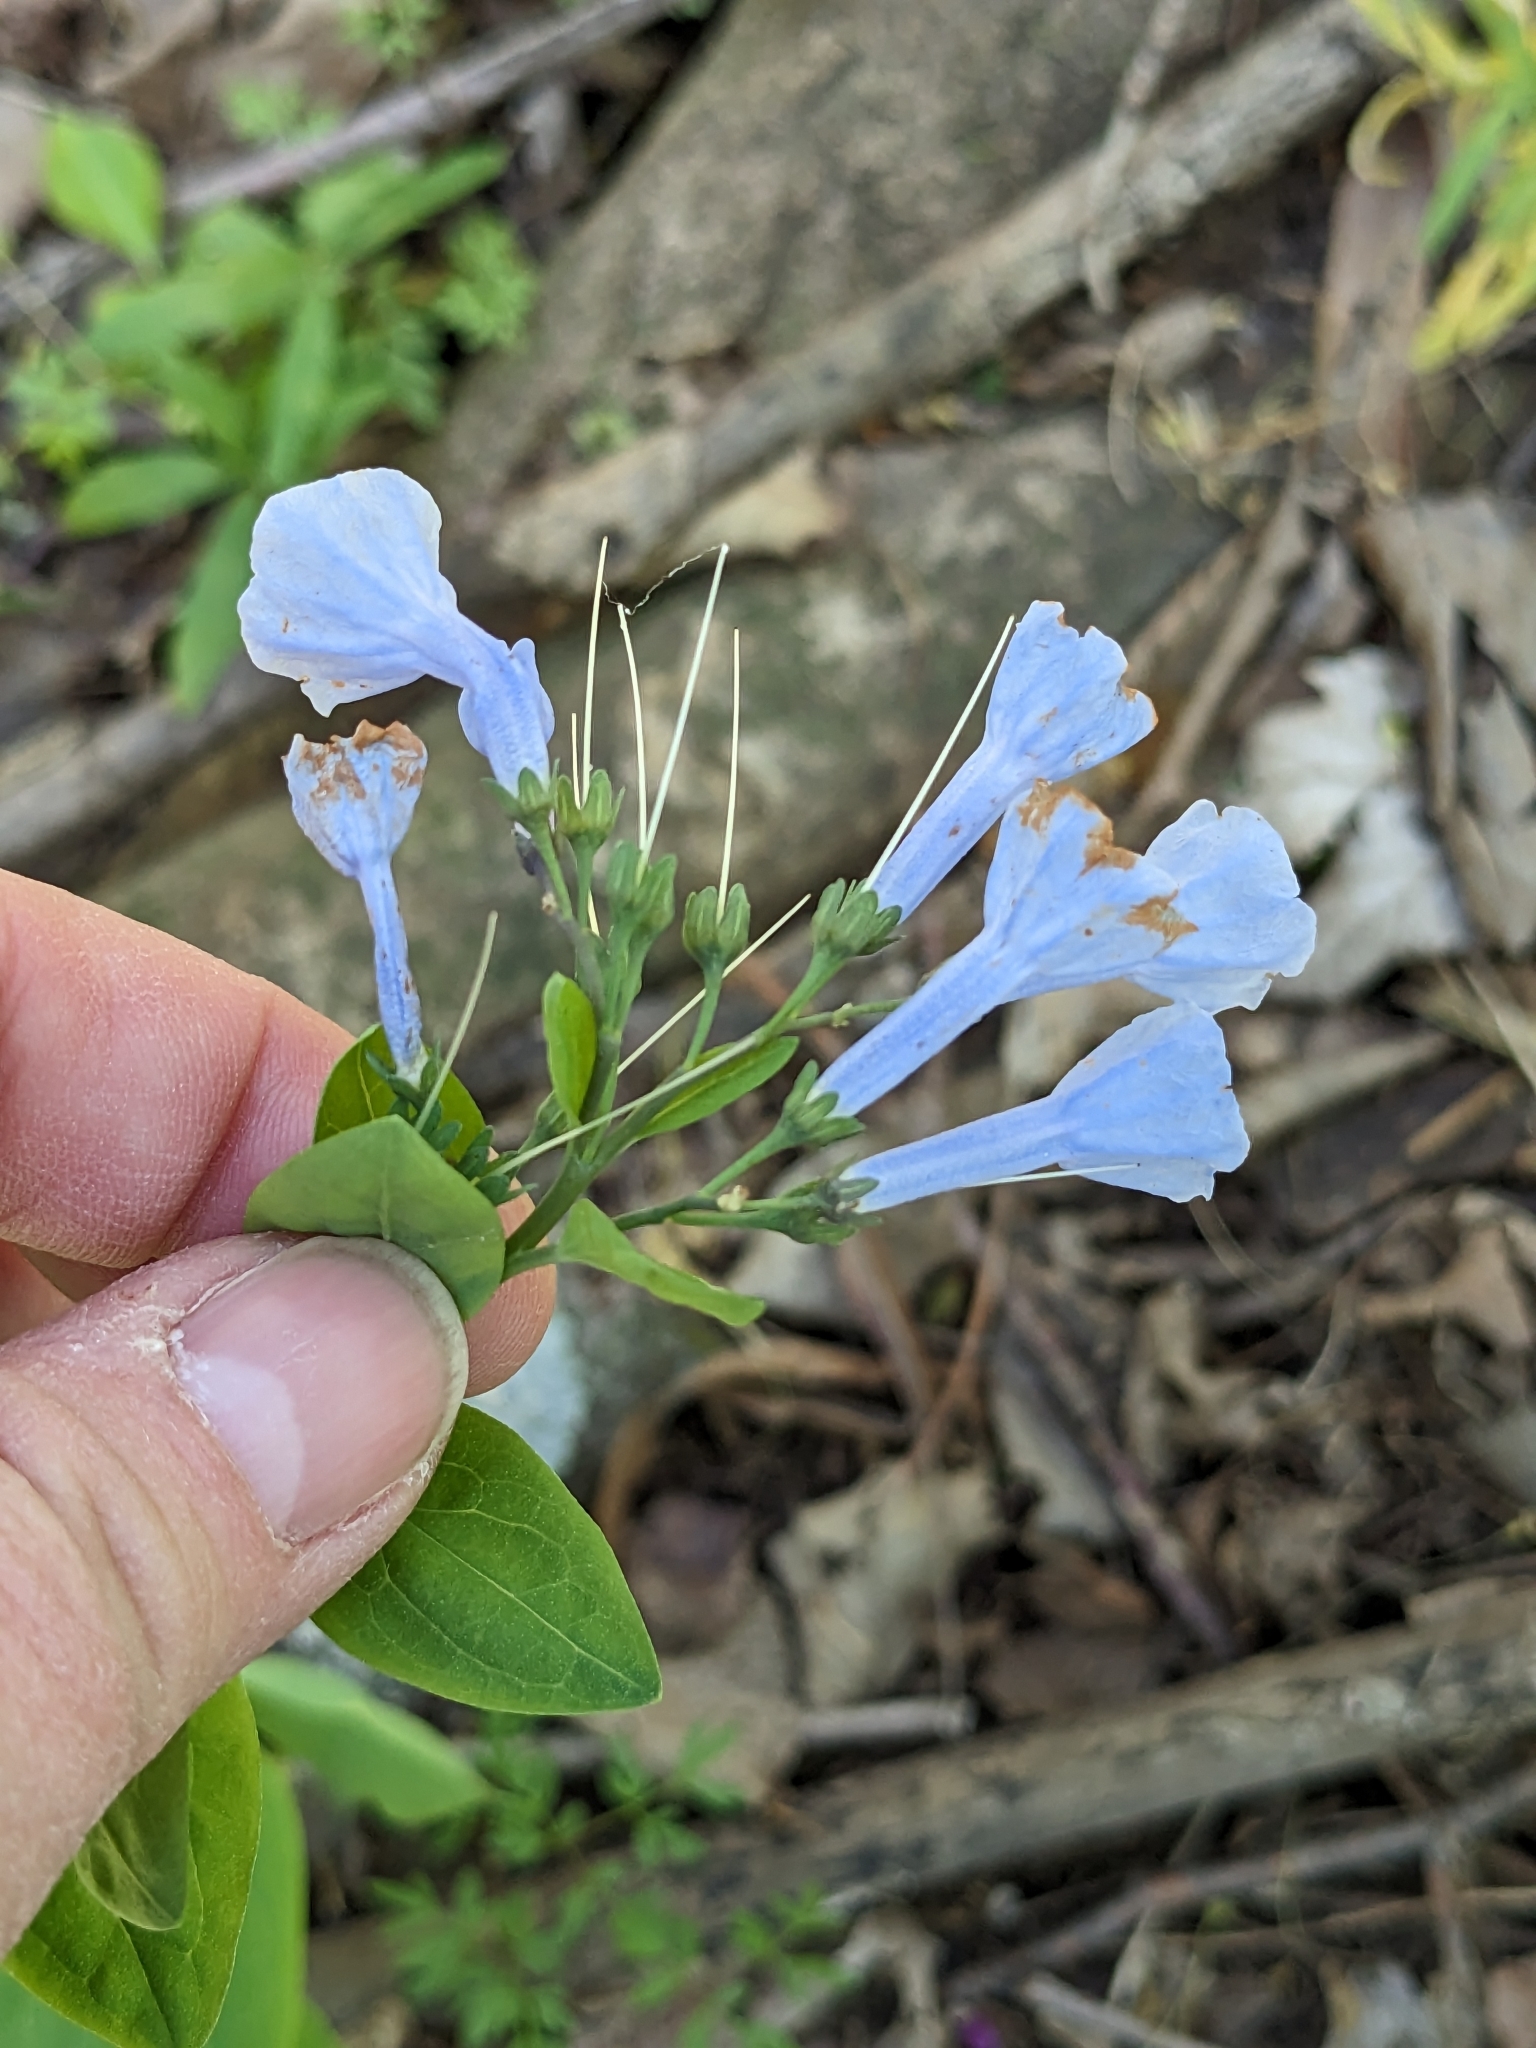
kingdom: Plantae
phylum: Tracheophyta
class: Magnoliopsida
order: Boraginales
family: Boraginaceae
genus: Mertensia
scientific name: Mertensia virginica
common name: Virginia bluebells
